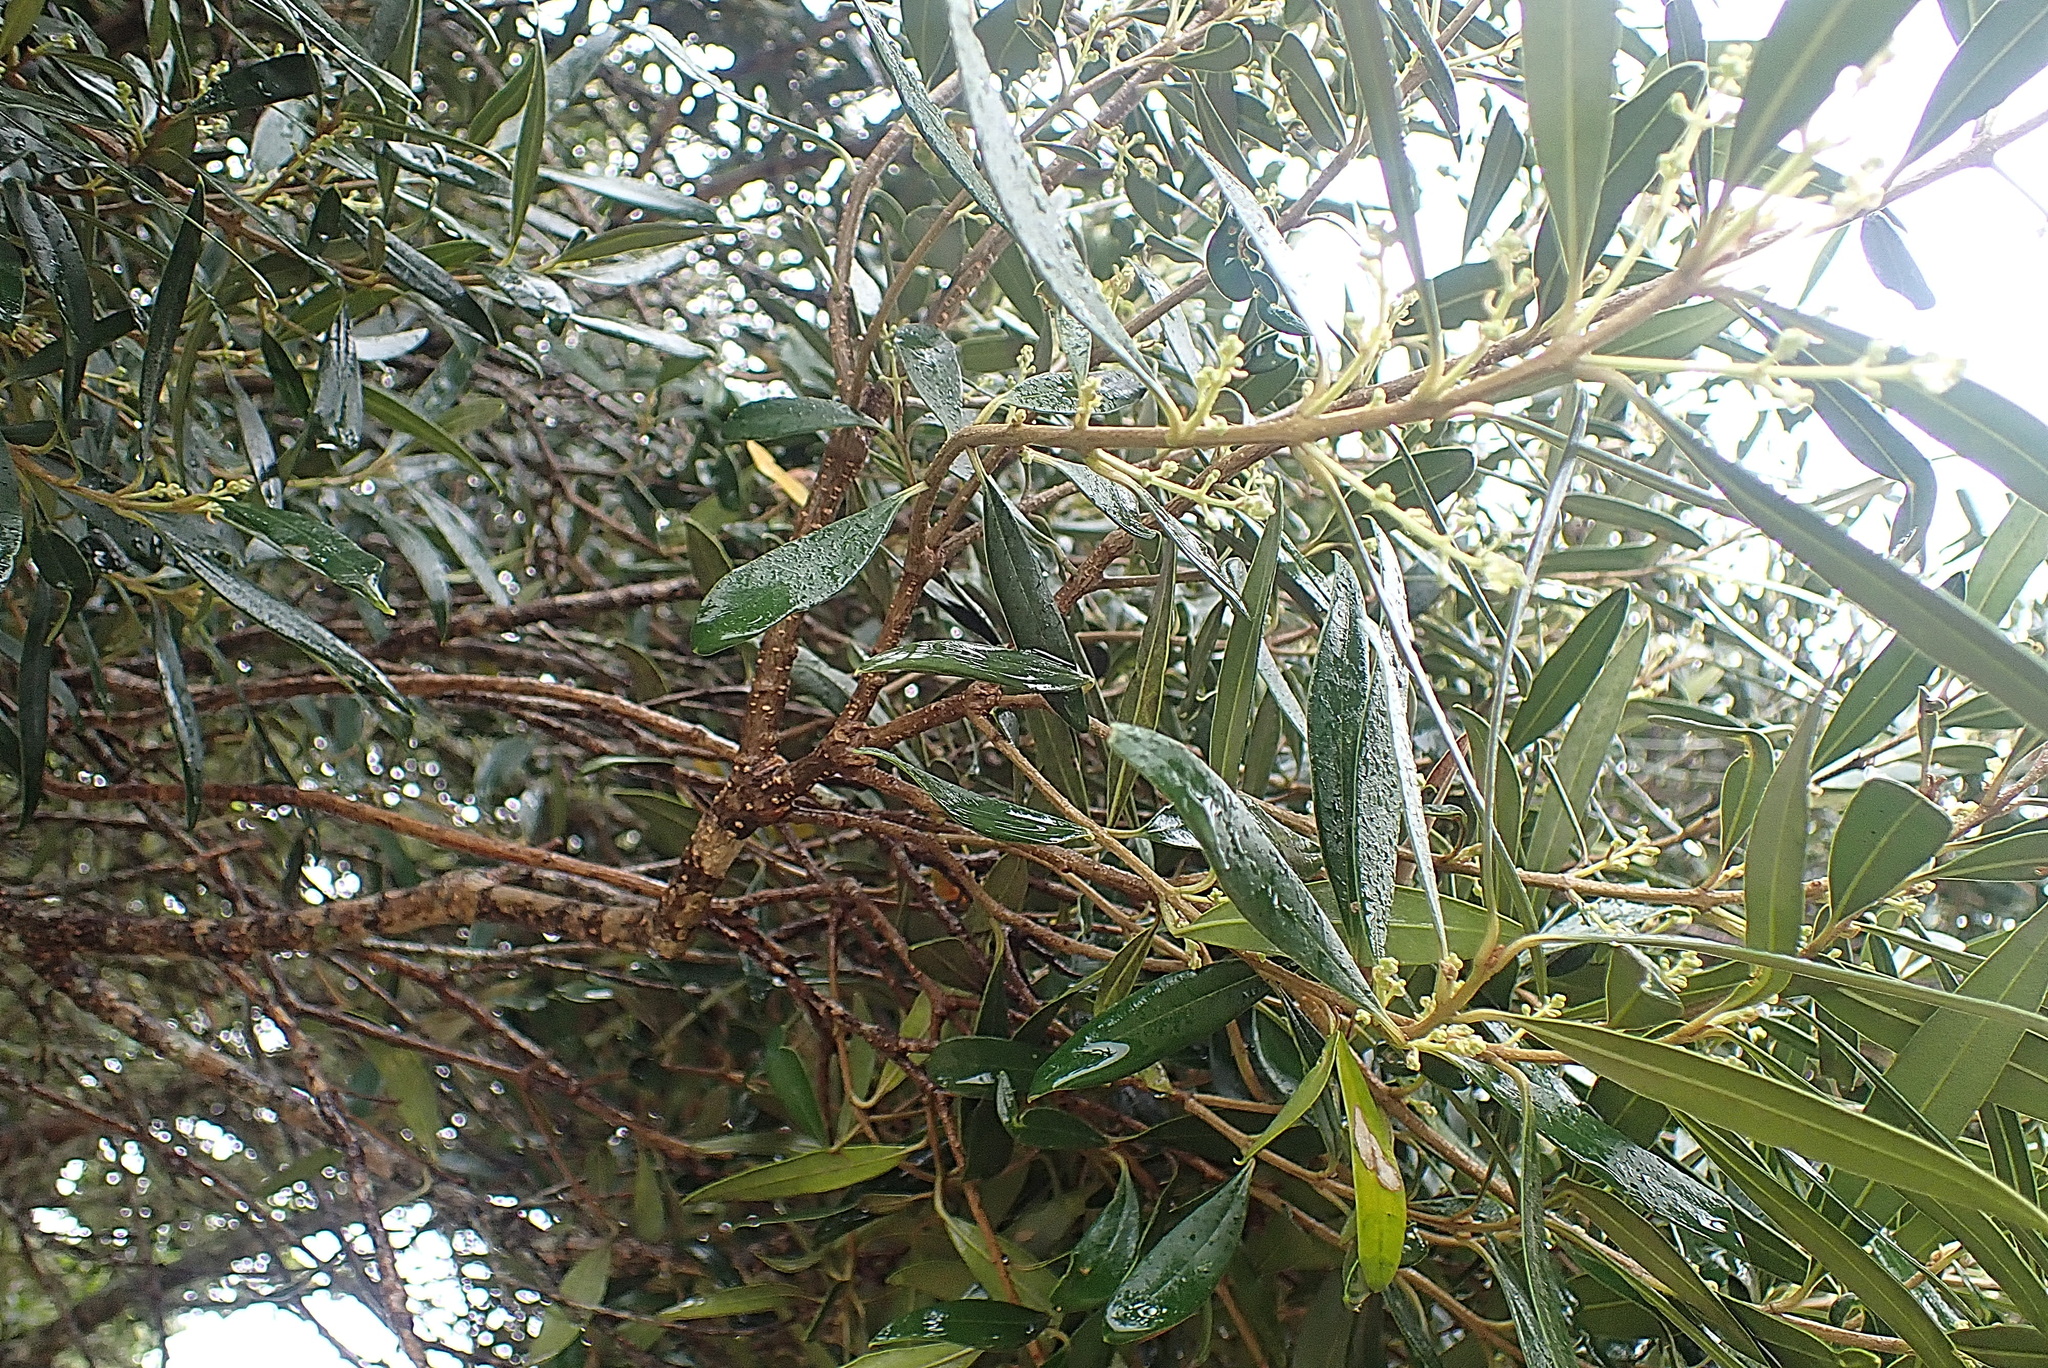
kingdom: Plantae
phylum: Tracheophyta
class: Magnoliopsida
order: Lamiales
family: Oleaceae
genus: Olea
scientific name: Olea europaea
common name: Olive
